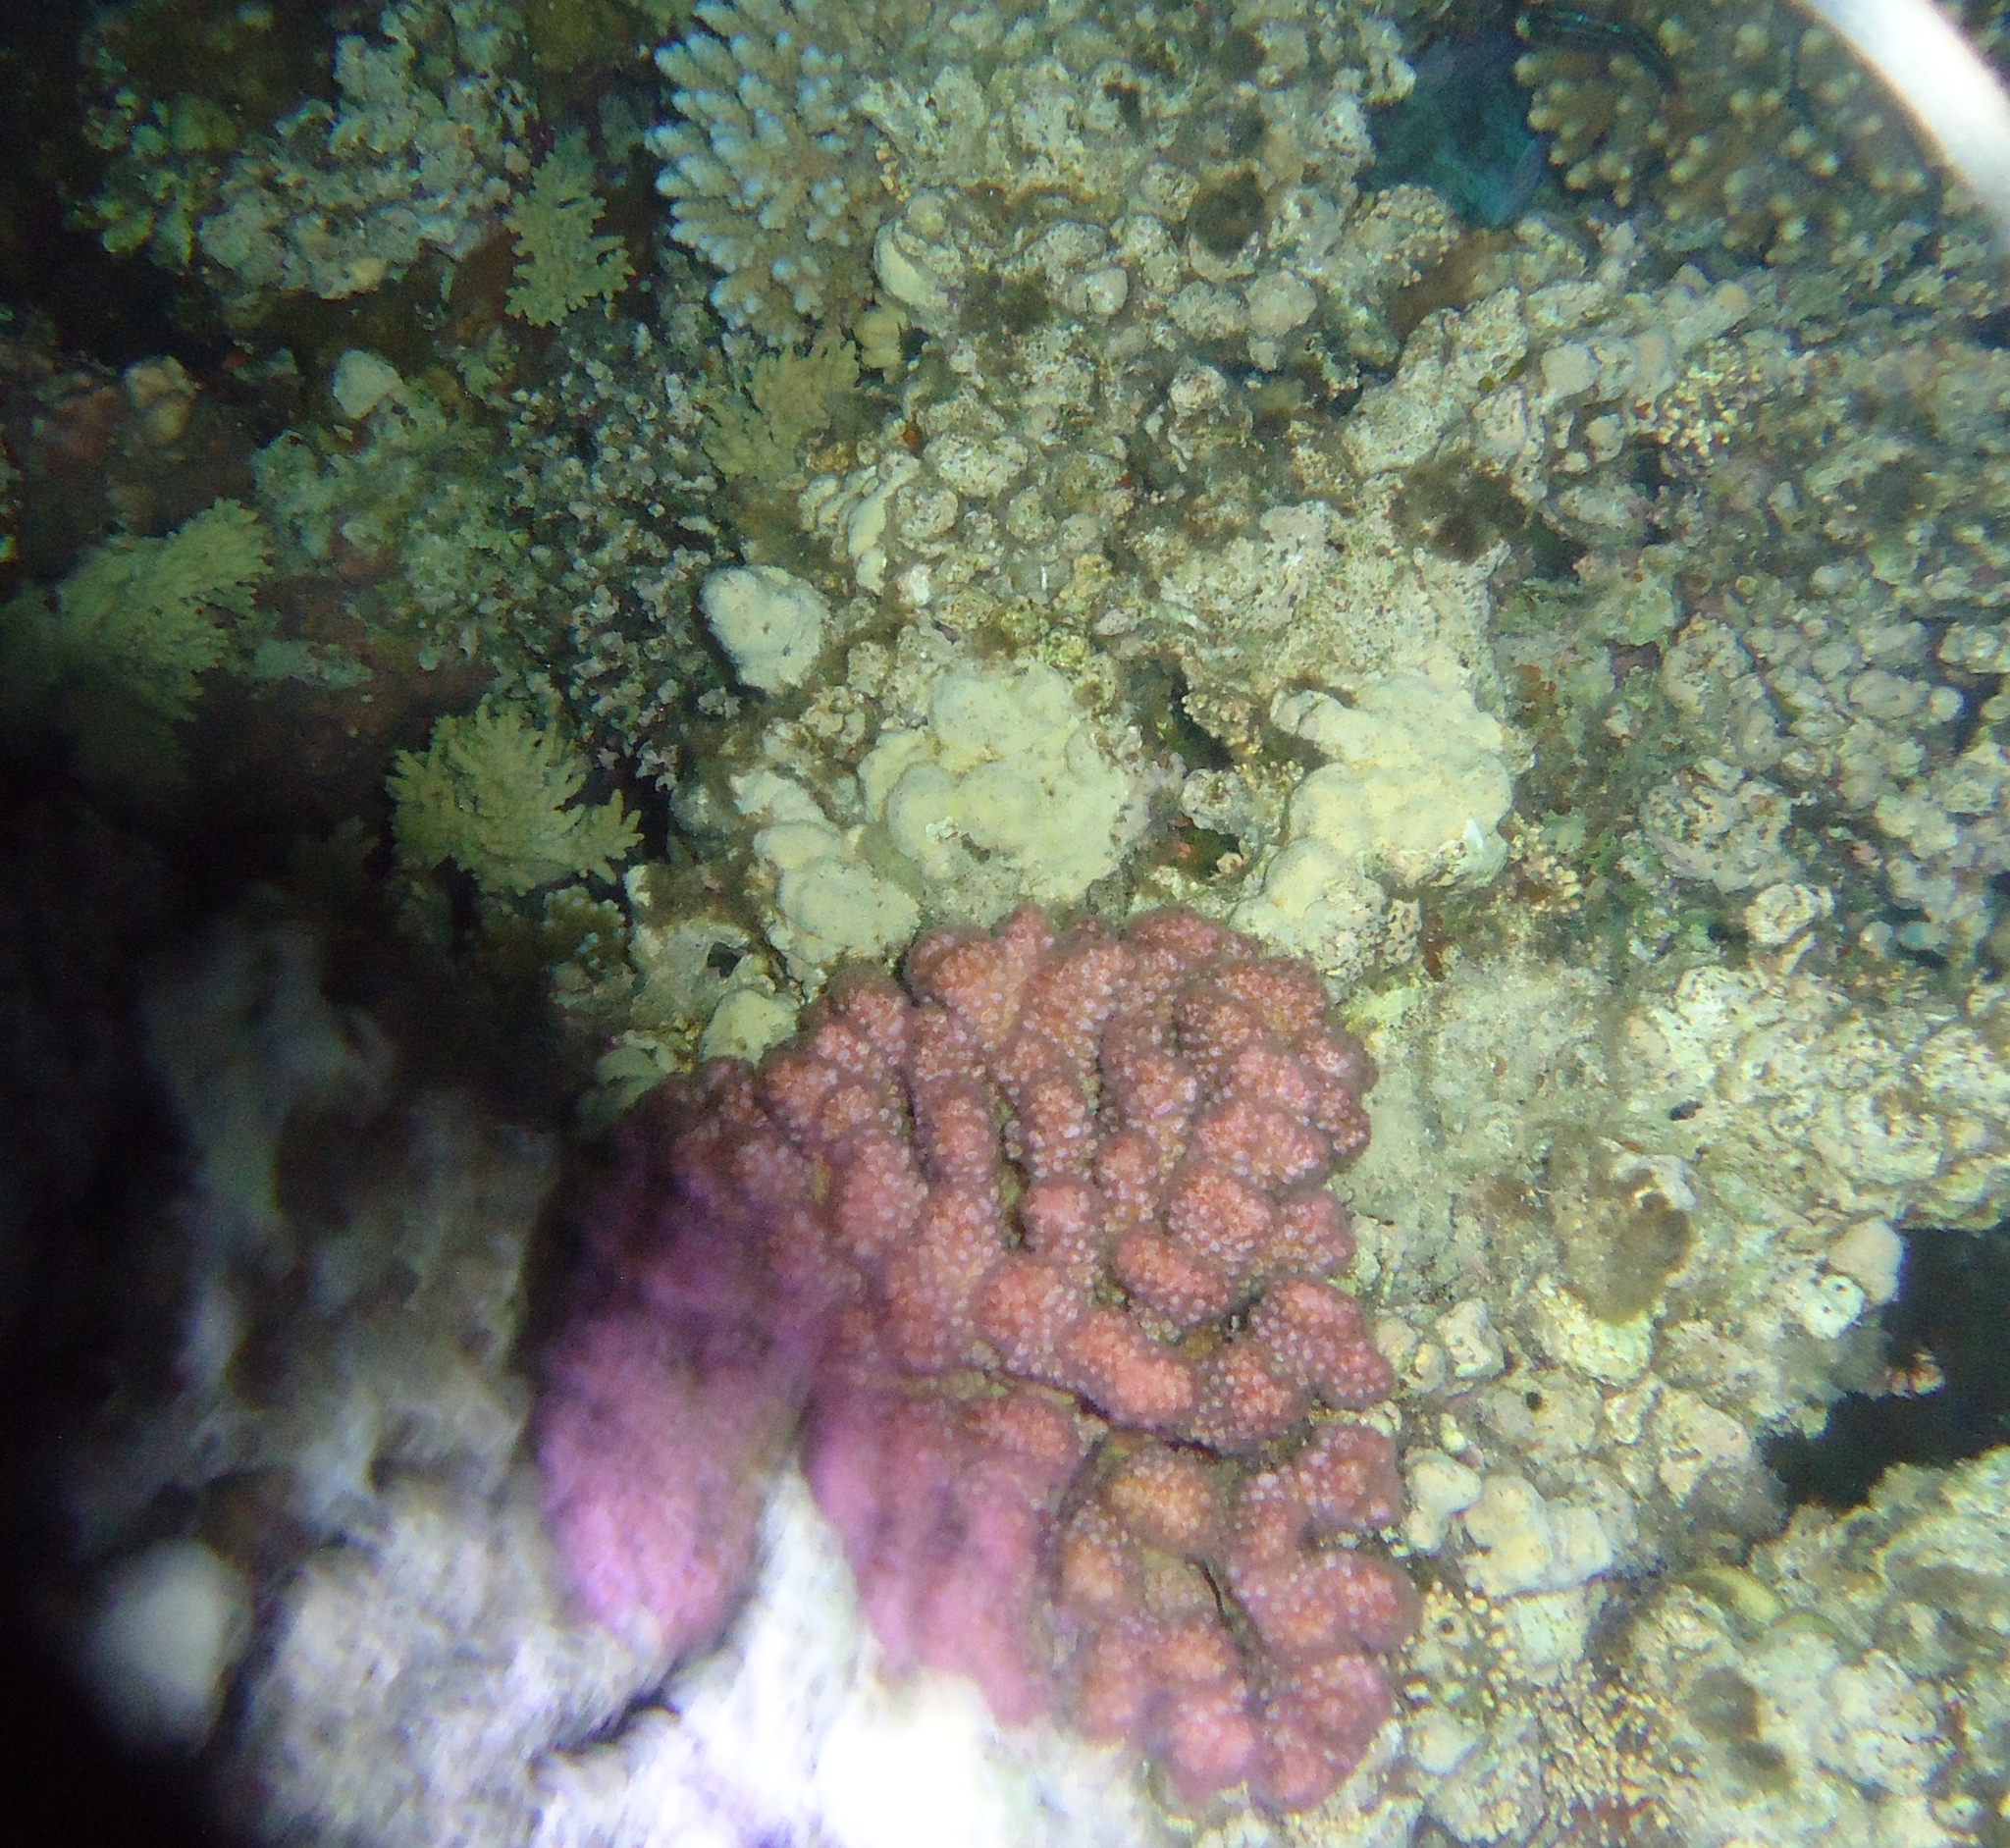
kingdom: Animalia
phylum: Cnidaria
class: Anthozoa
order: Scleractinia
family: Pocilloporidae
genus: Pocillopora
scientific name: Pocillopora meandrina
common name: Cauliflower coral
